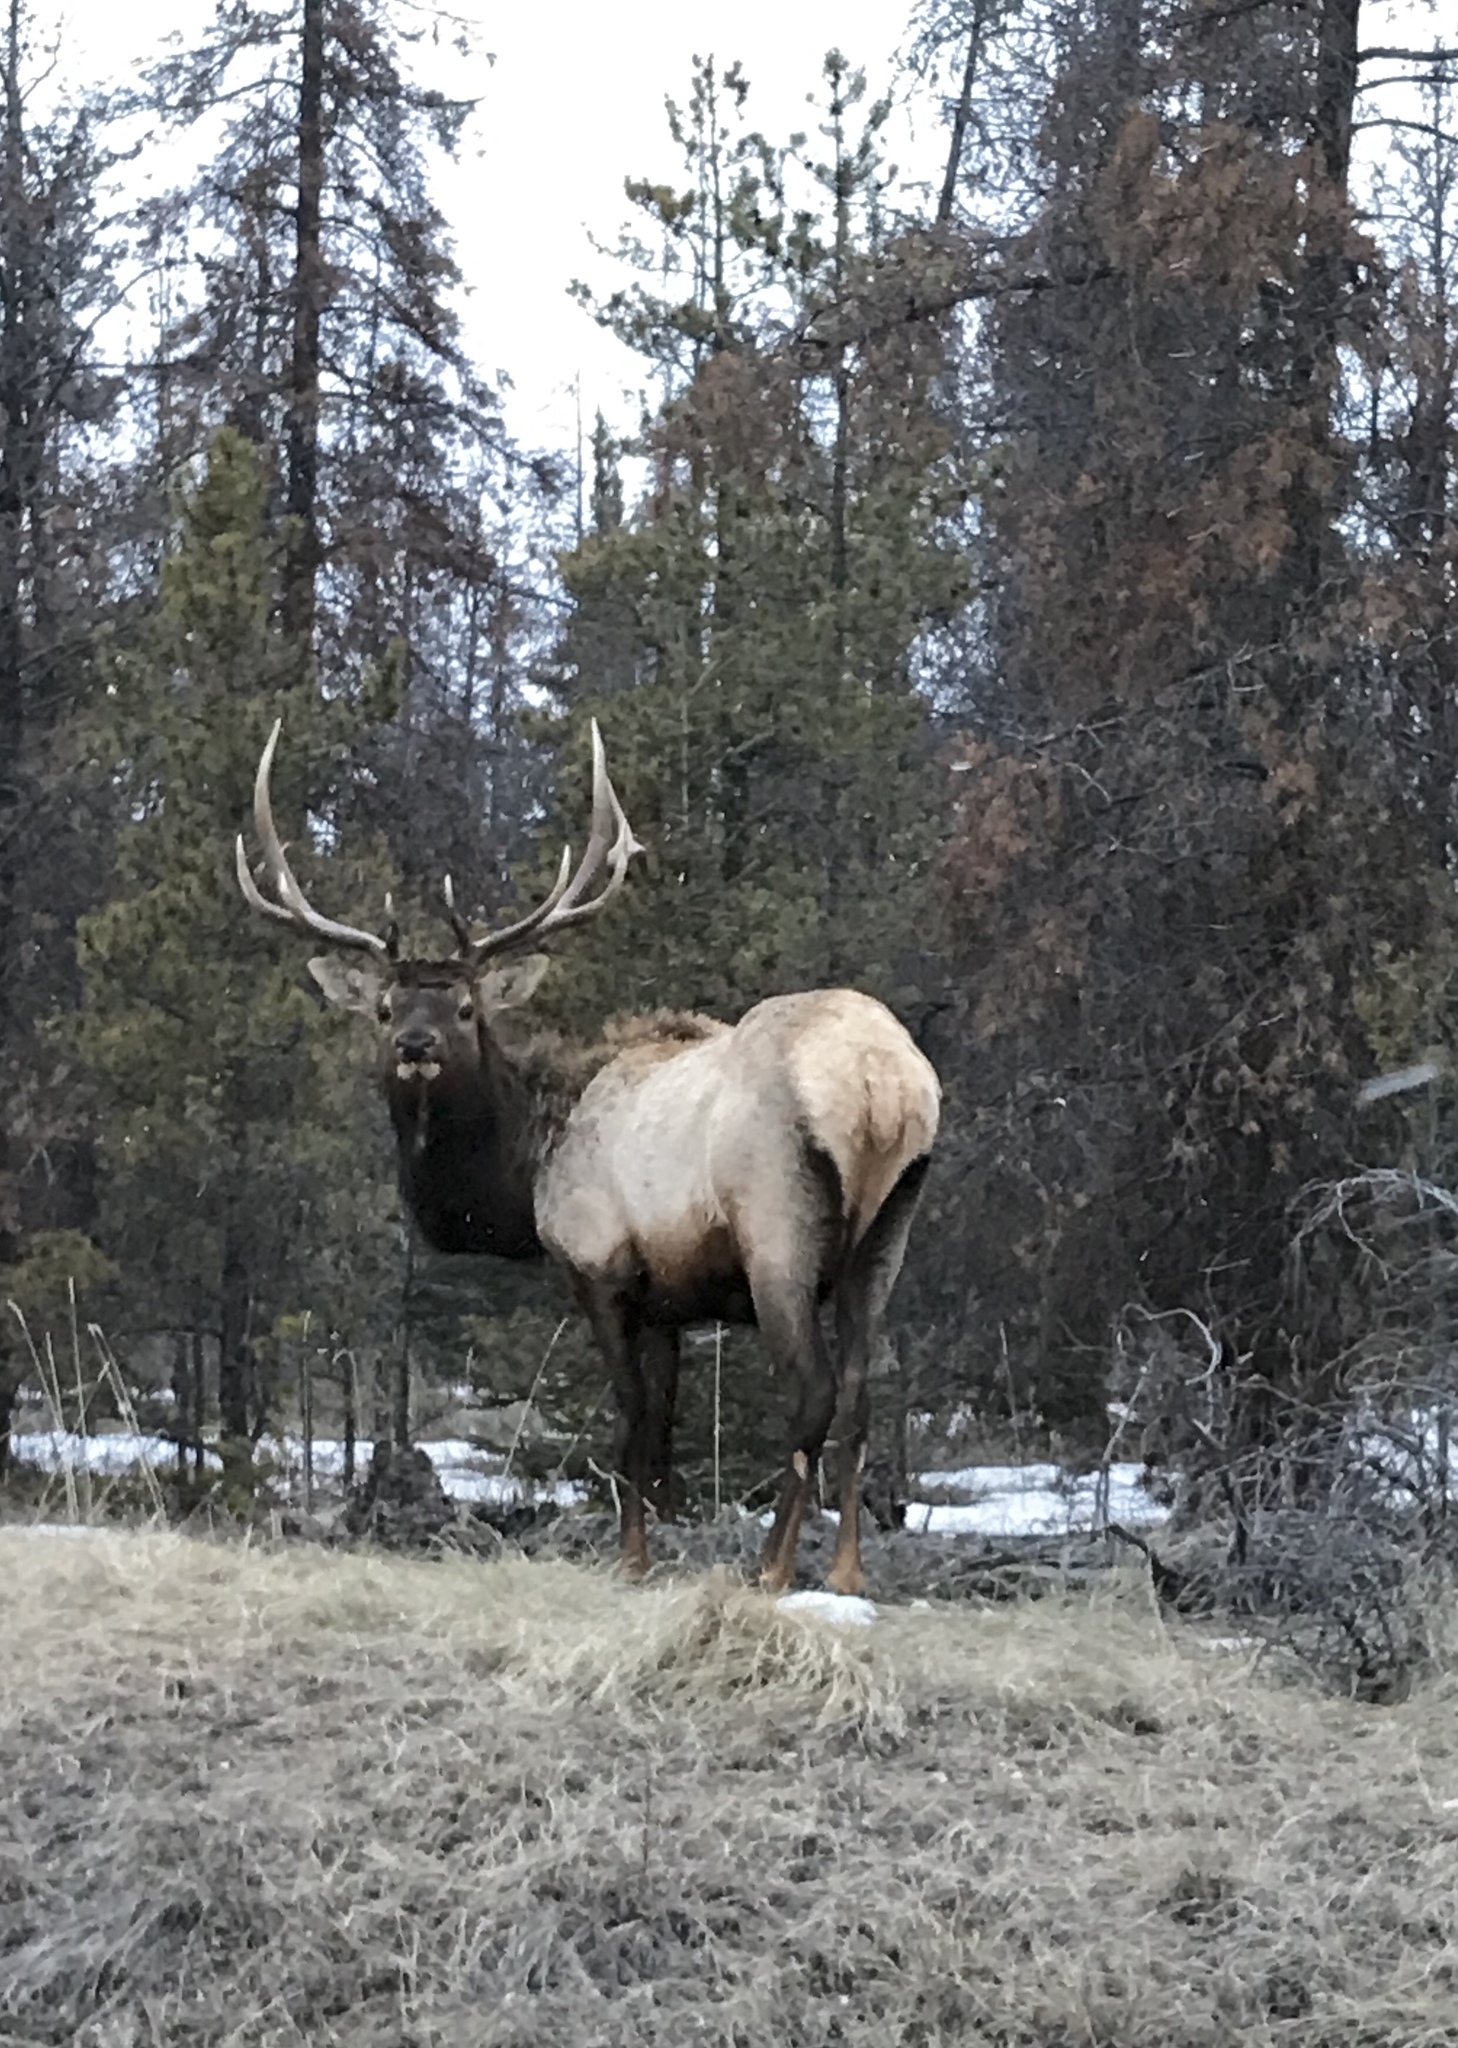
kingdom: Animalia
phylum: Chordata
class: Mammalia
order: Artiodactyla
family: Cervidae
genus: Cervus
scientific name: Cervus elaphus
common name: Red deer
